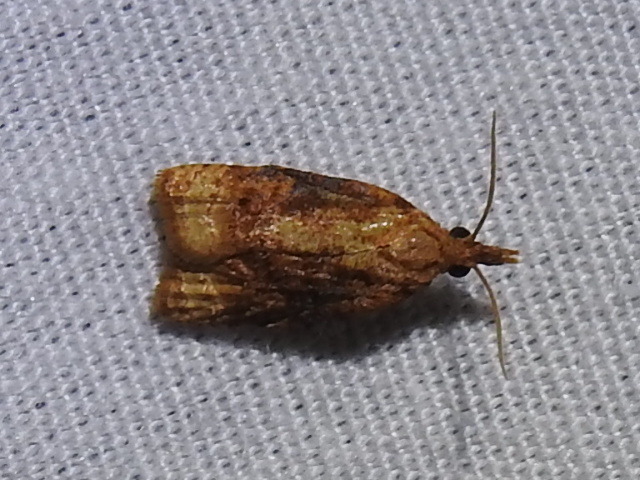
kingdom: Animalia
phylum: Arthropoda
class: Insecta
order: Lepidoptera
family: Tortricidae
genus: Platynota
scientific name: Platynota flavedana
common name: Black-shaded platynota moth
